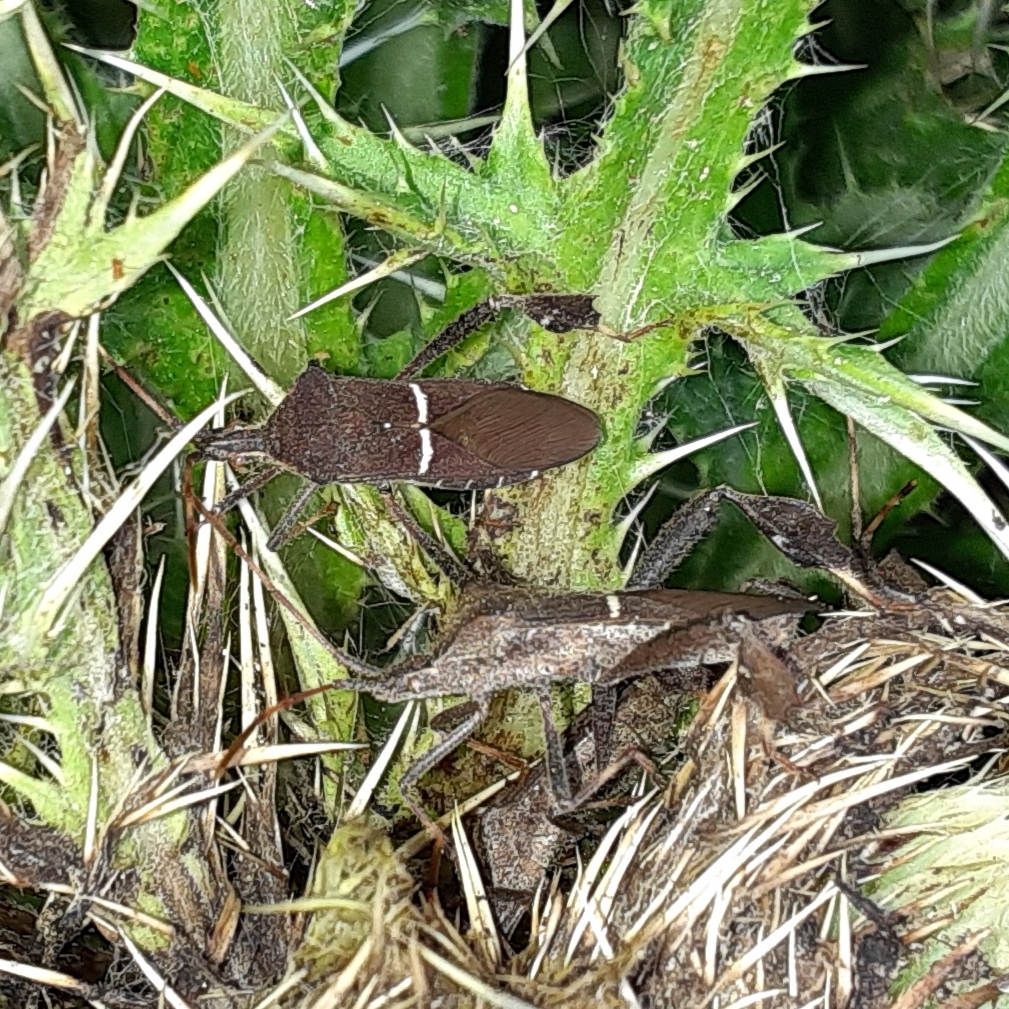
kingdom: Animalia
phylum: Arthropoda
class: Insecta
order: Hemiptera
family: Coreidae
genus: Leptoglossus
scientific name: Leptoglossus phyllopus
